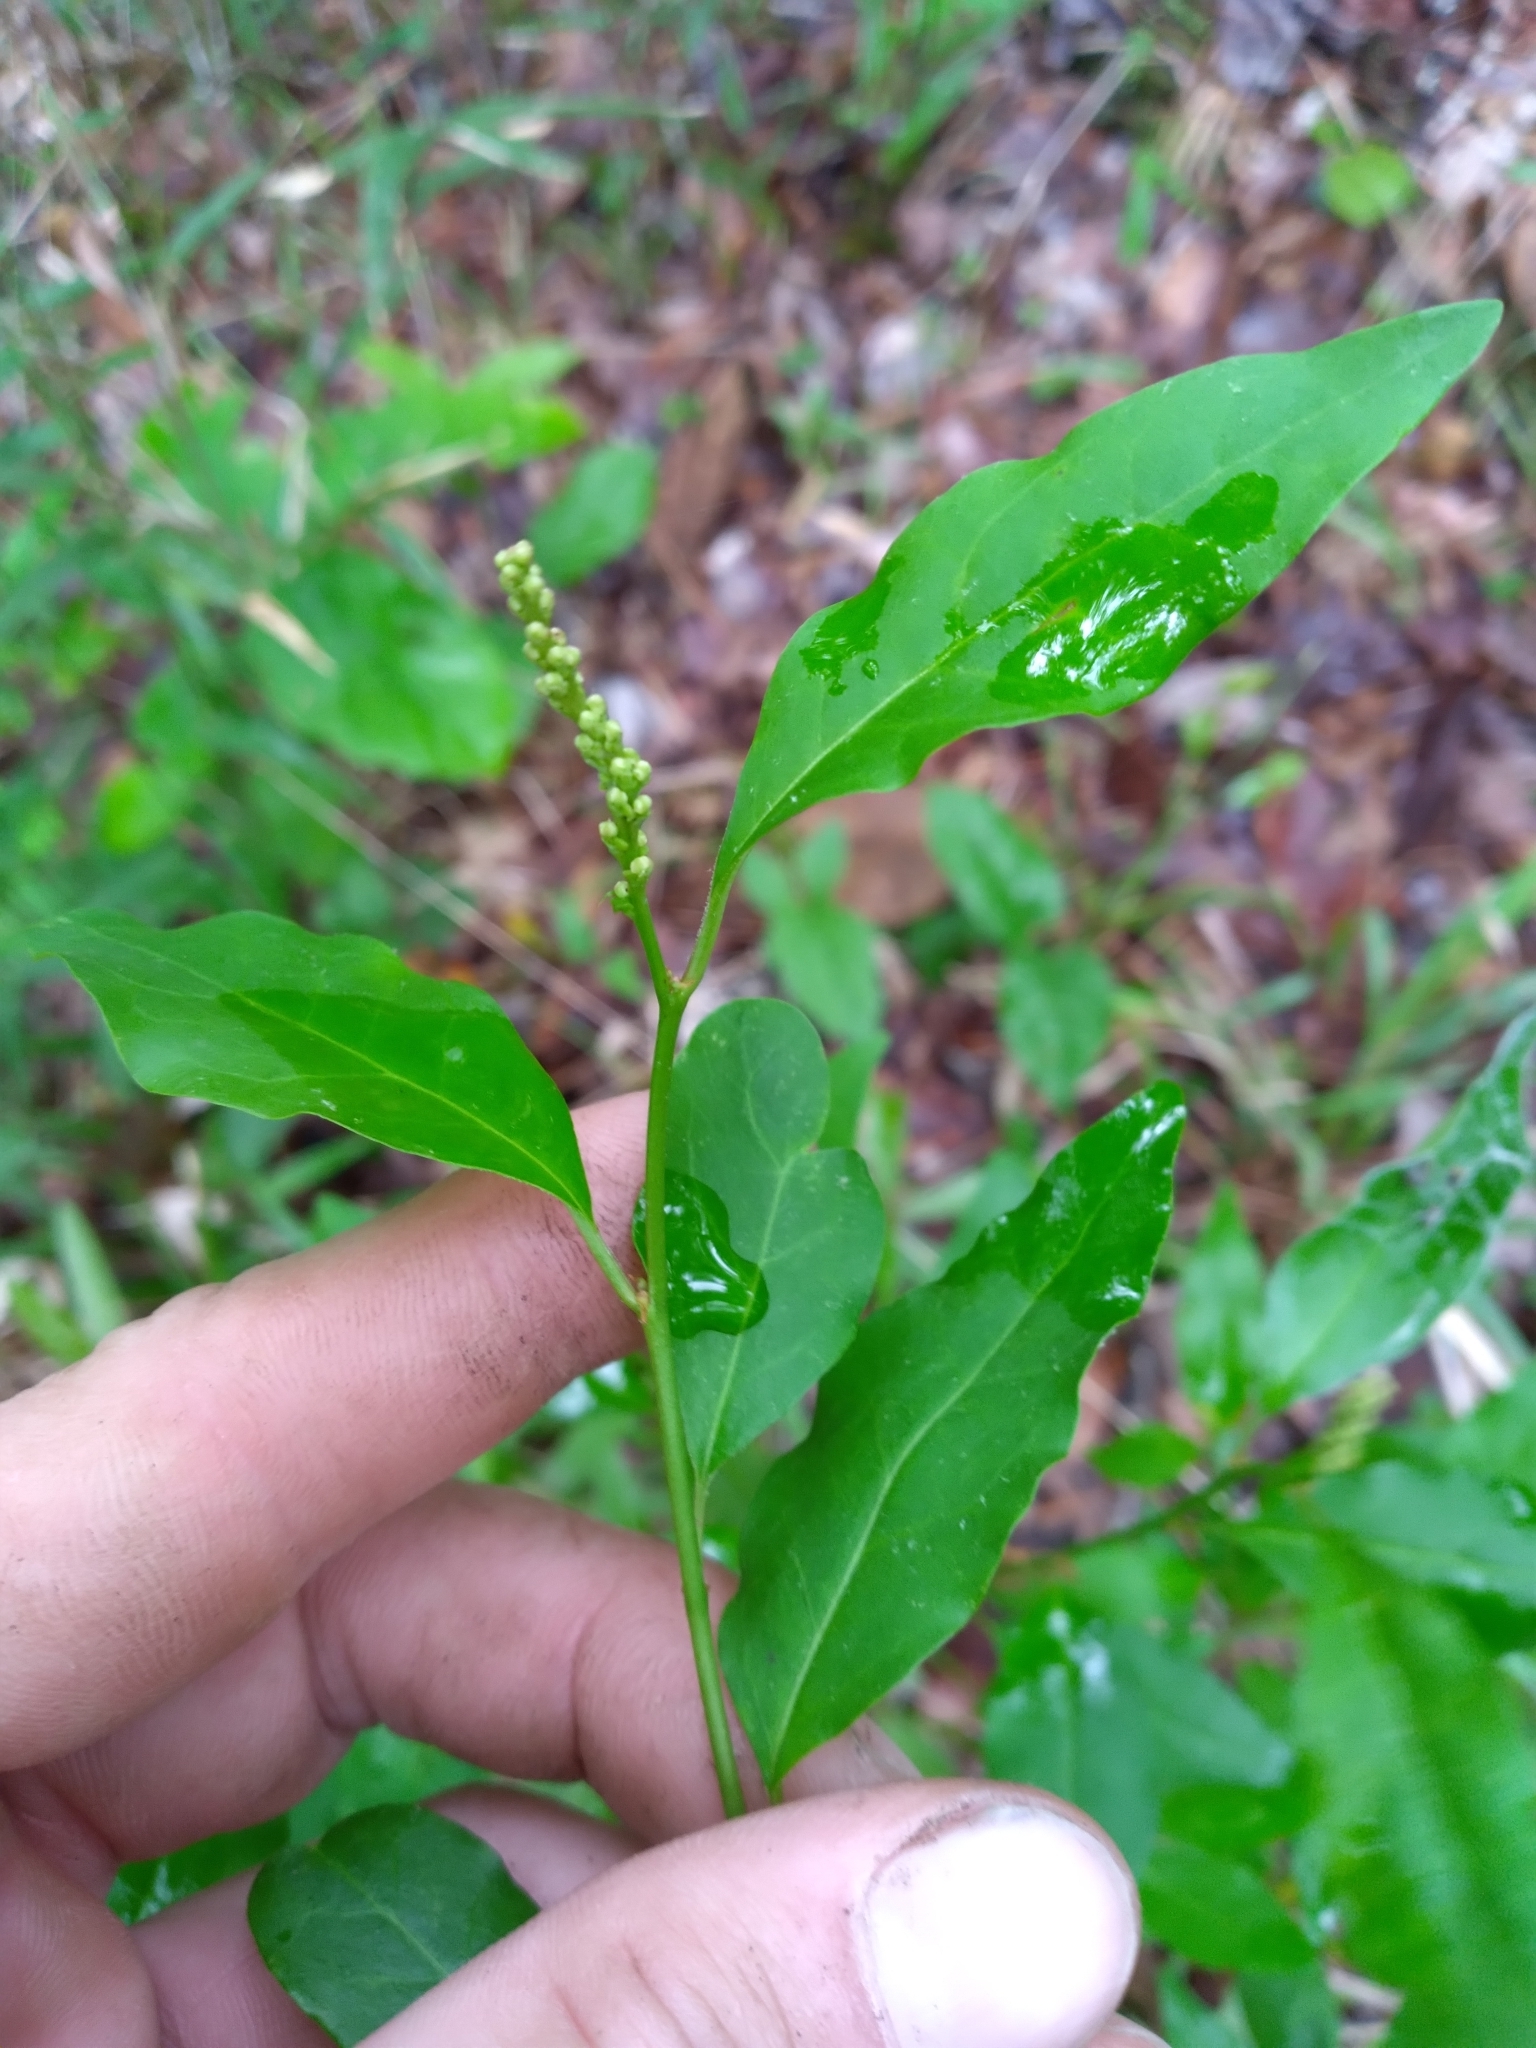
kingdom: Plantae
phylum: Tracheophyta
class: Magnoliopsida
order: Malpighiales
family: Euphorbiaceae
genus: Ditrysinia
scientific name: Ditrysinia fruticosa
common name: Gulf sebastian-bush
